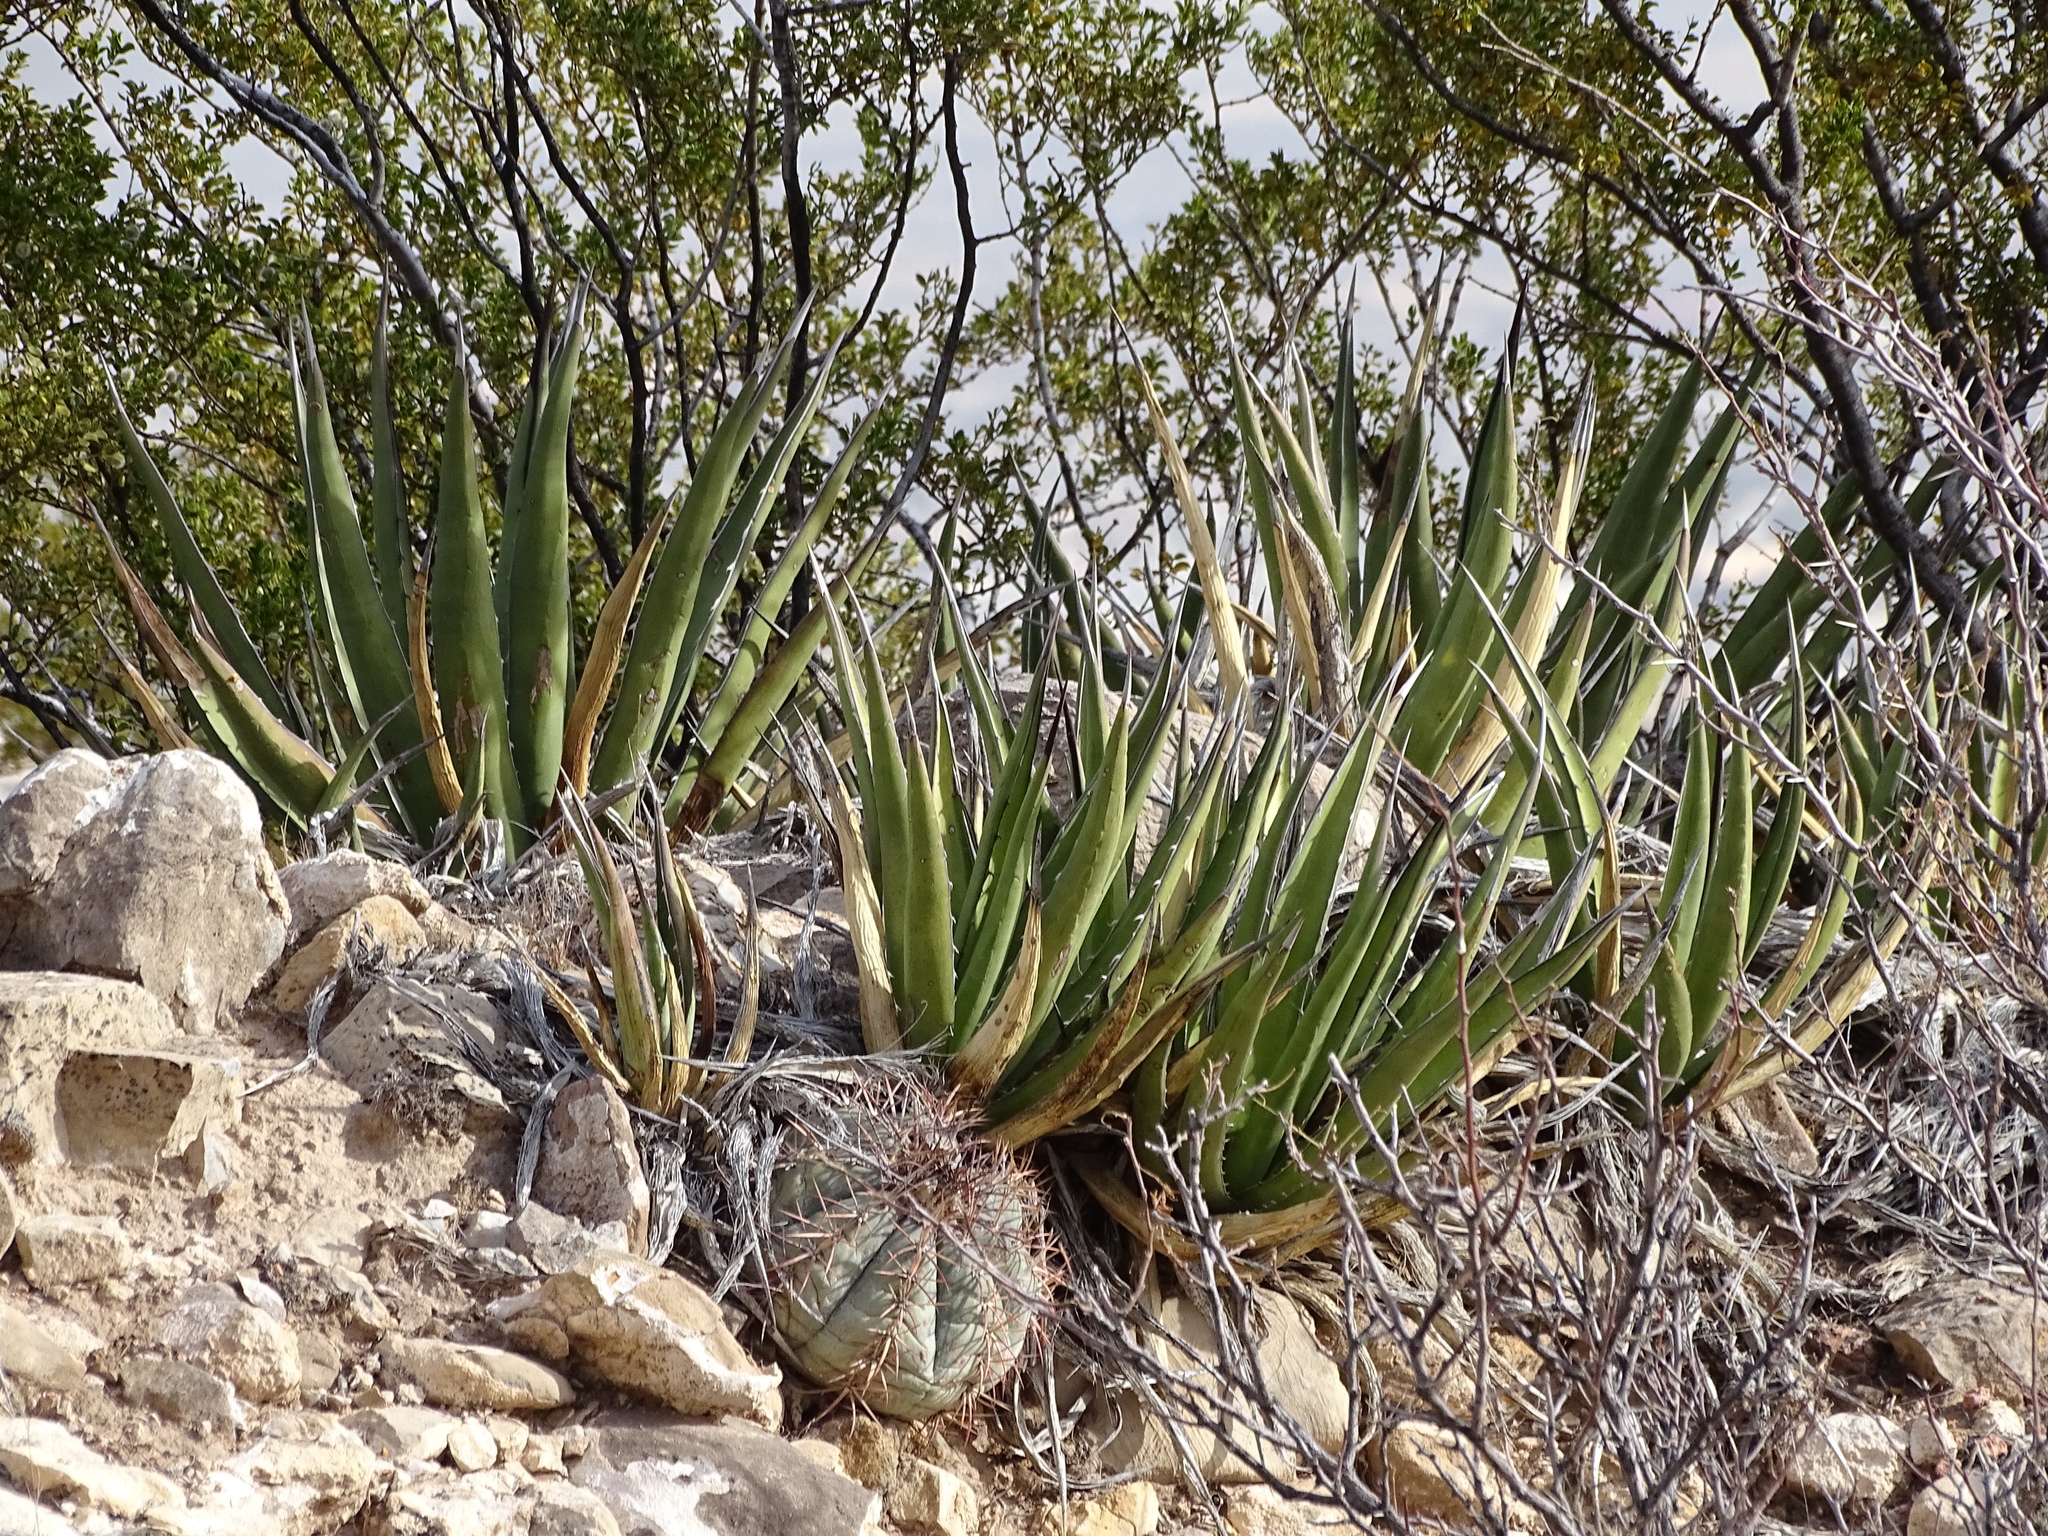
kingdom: Plantae
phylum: Tracheophyta
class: Liliopsida
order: Asparagales
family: Asparagaceae
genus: Agave
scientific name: Agave lechuguilla
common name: Lecheguilla agave
